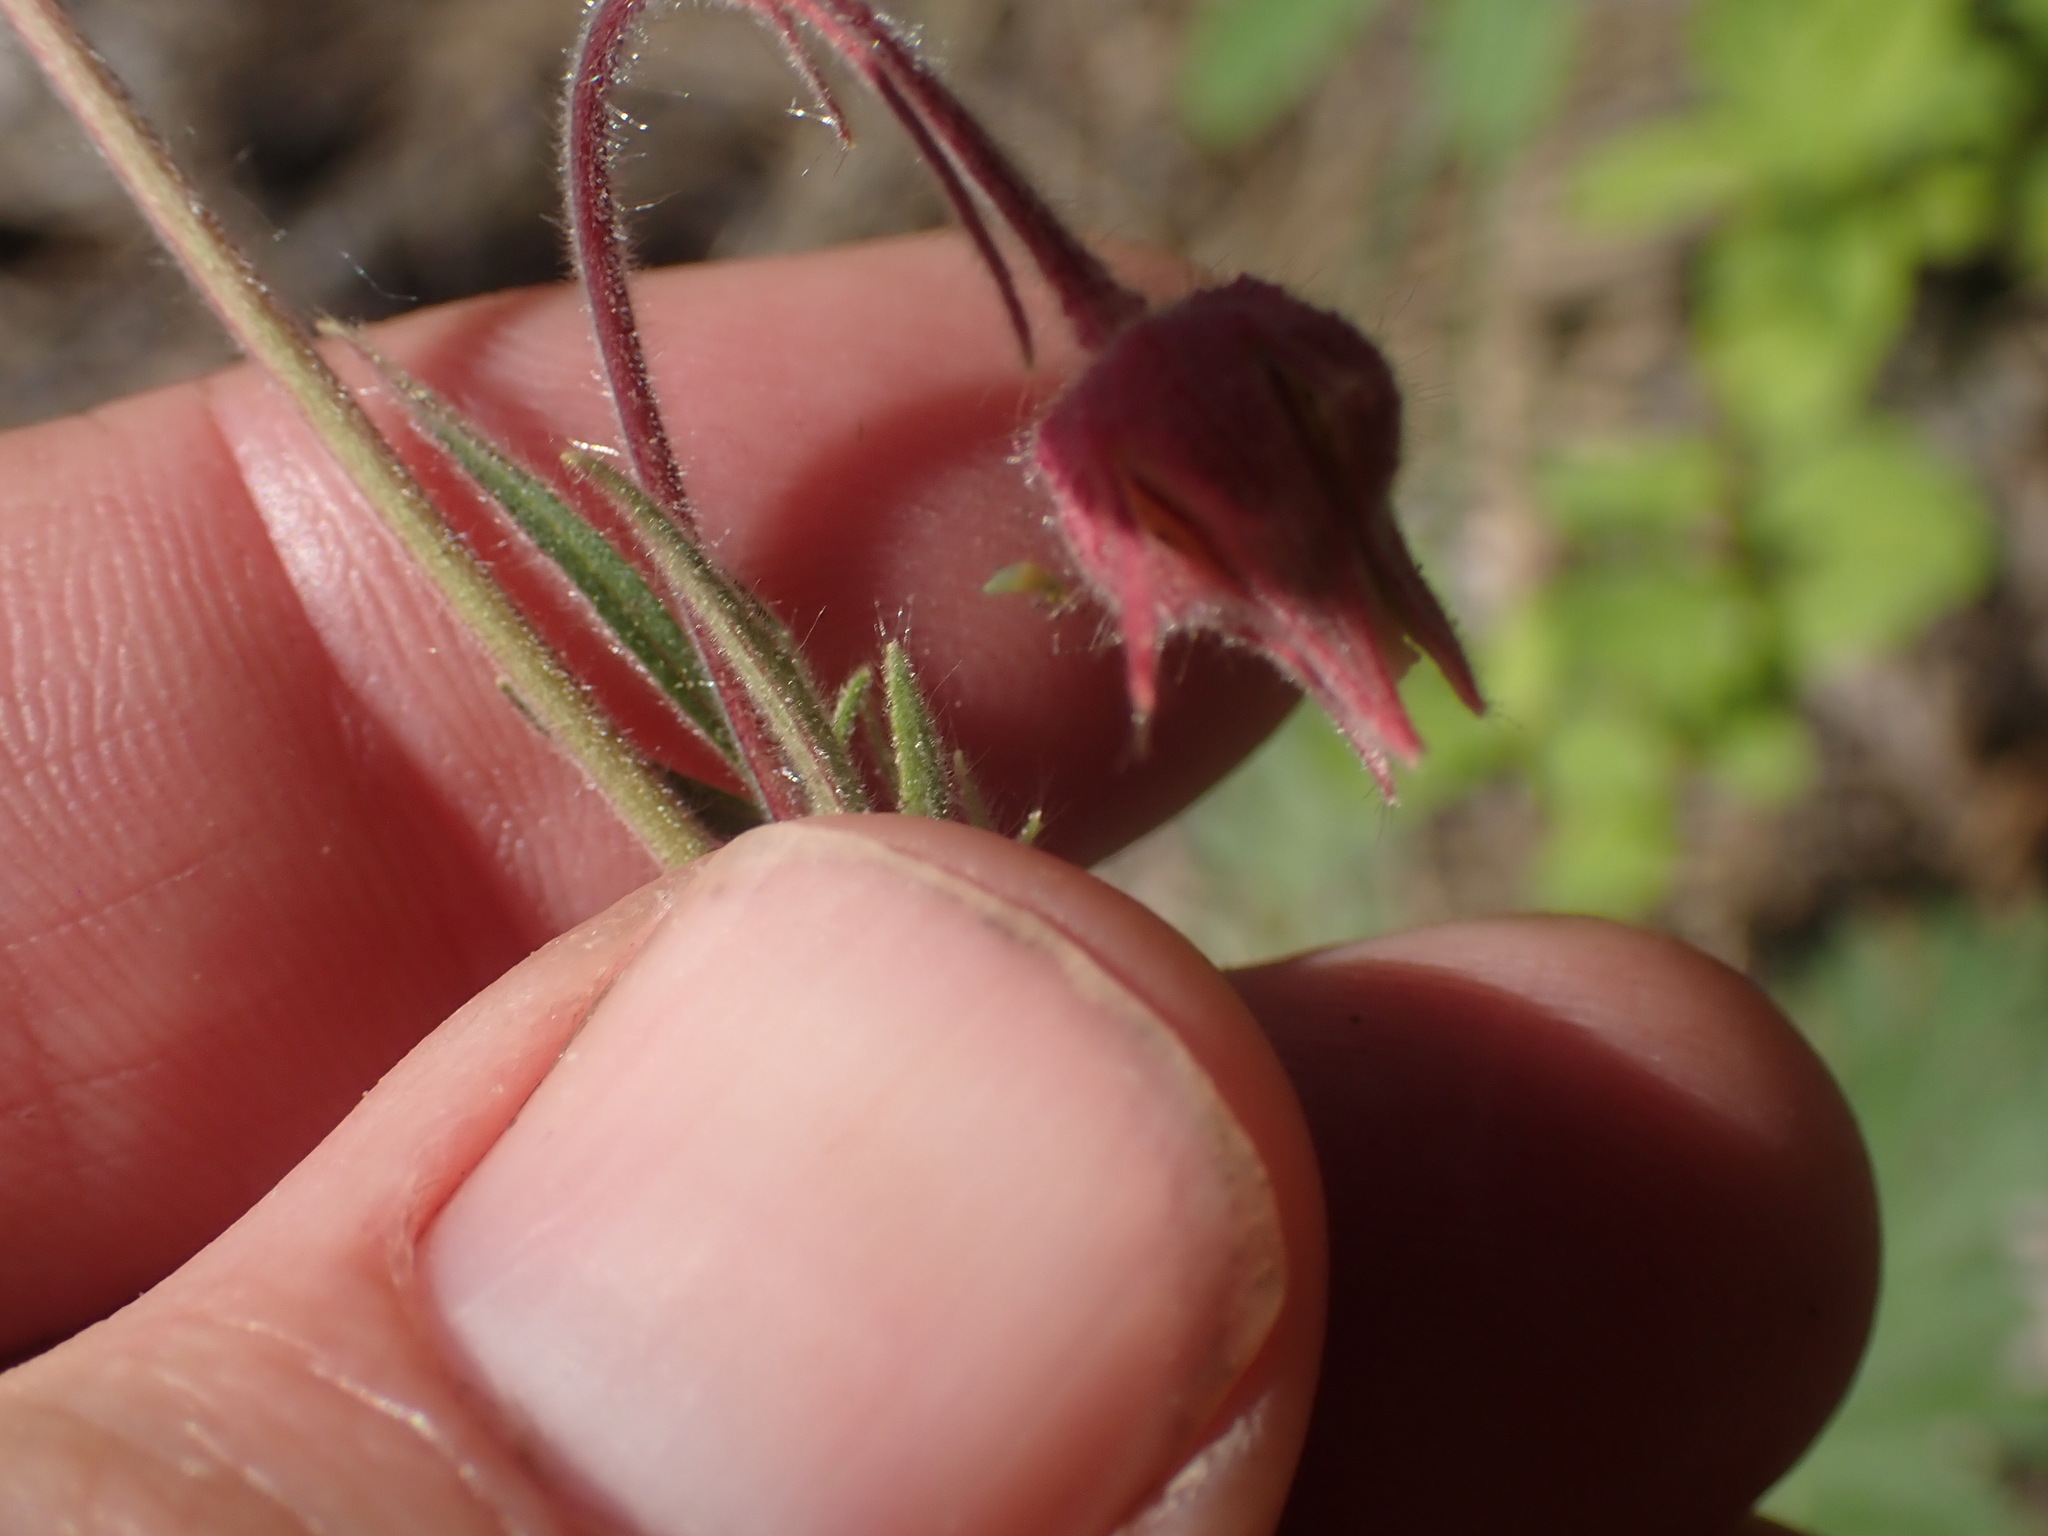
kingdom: Plantae
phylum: Tracheophyta
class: Magnoliopsida
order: Rosales
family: Rosaceae
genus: Geum
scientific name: Geum triflorum
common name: Old man's whiskers
